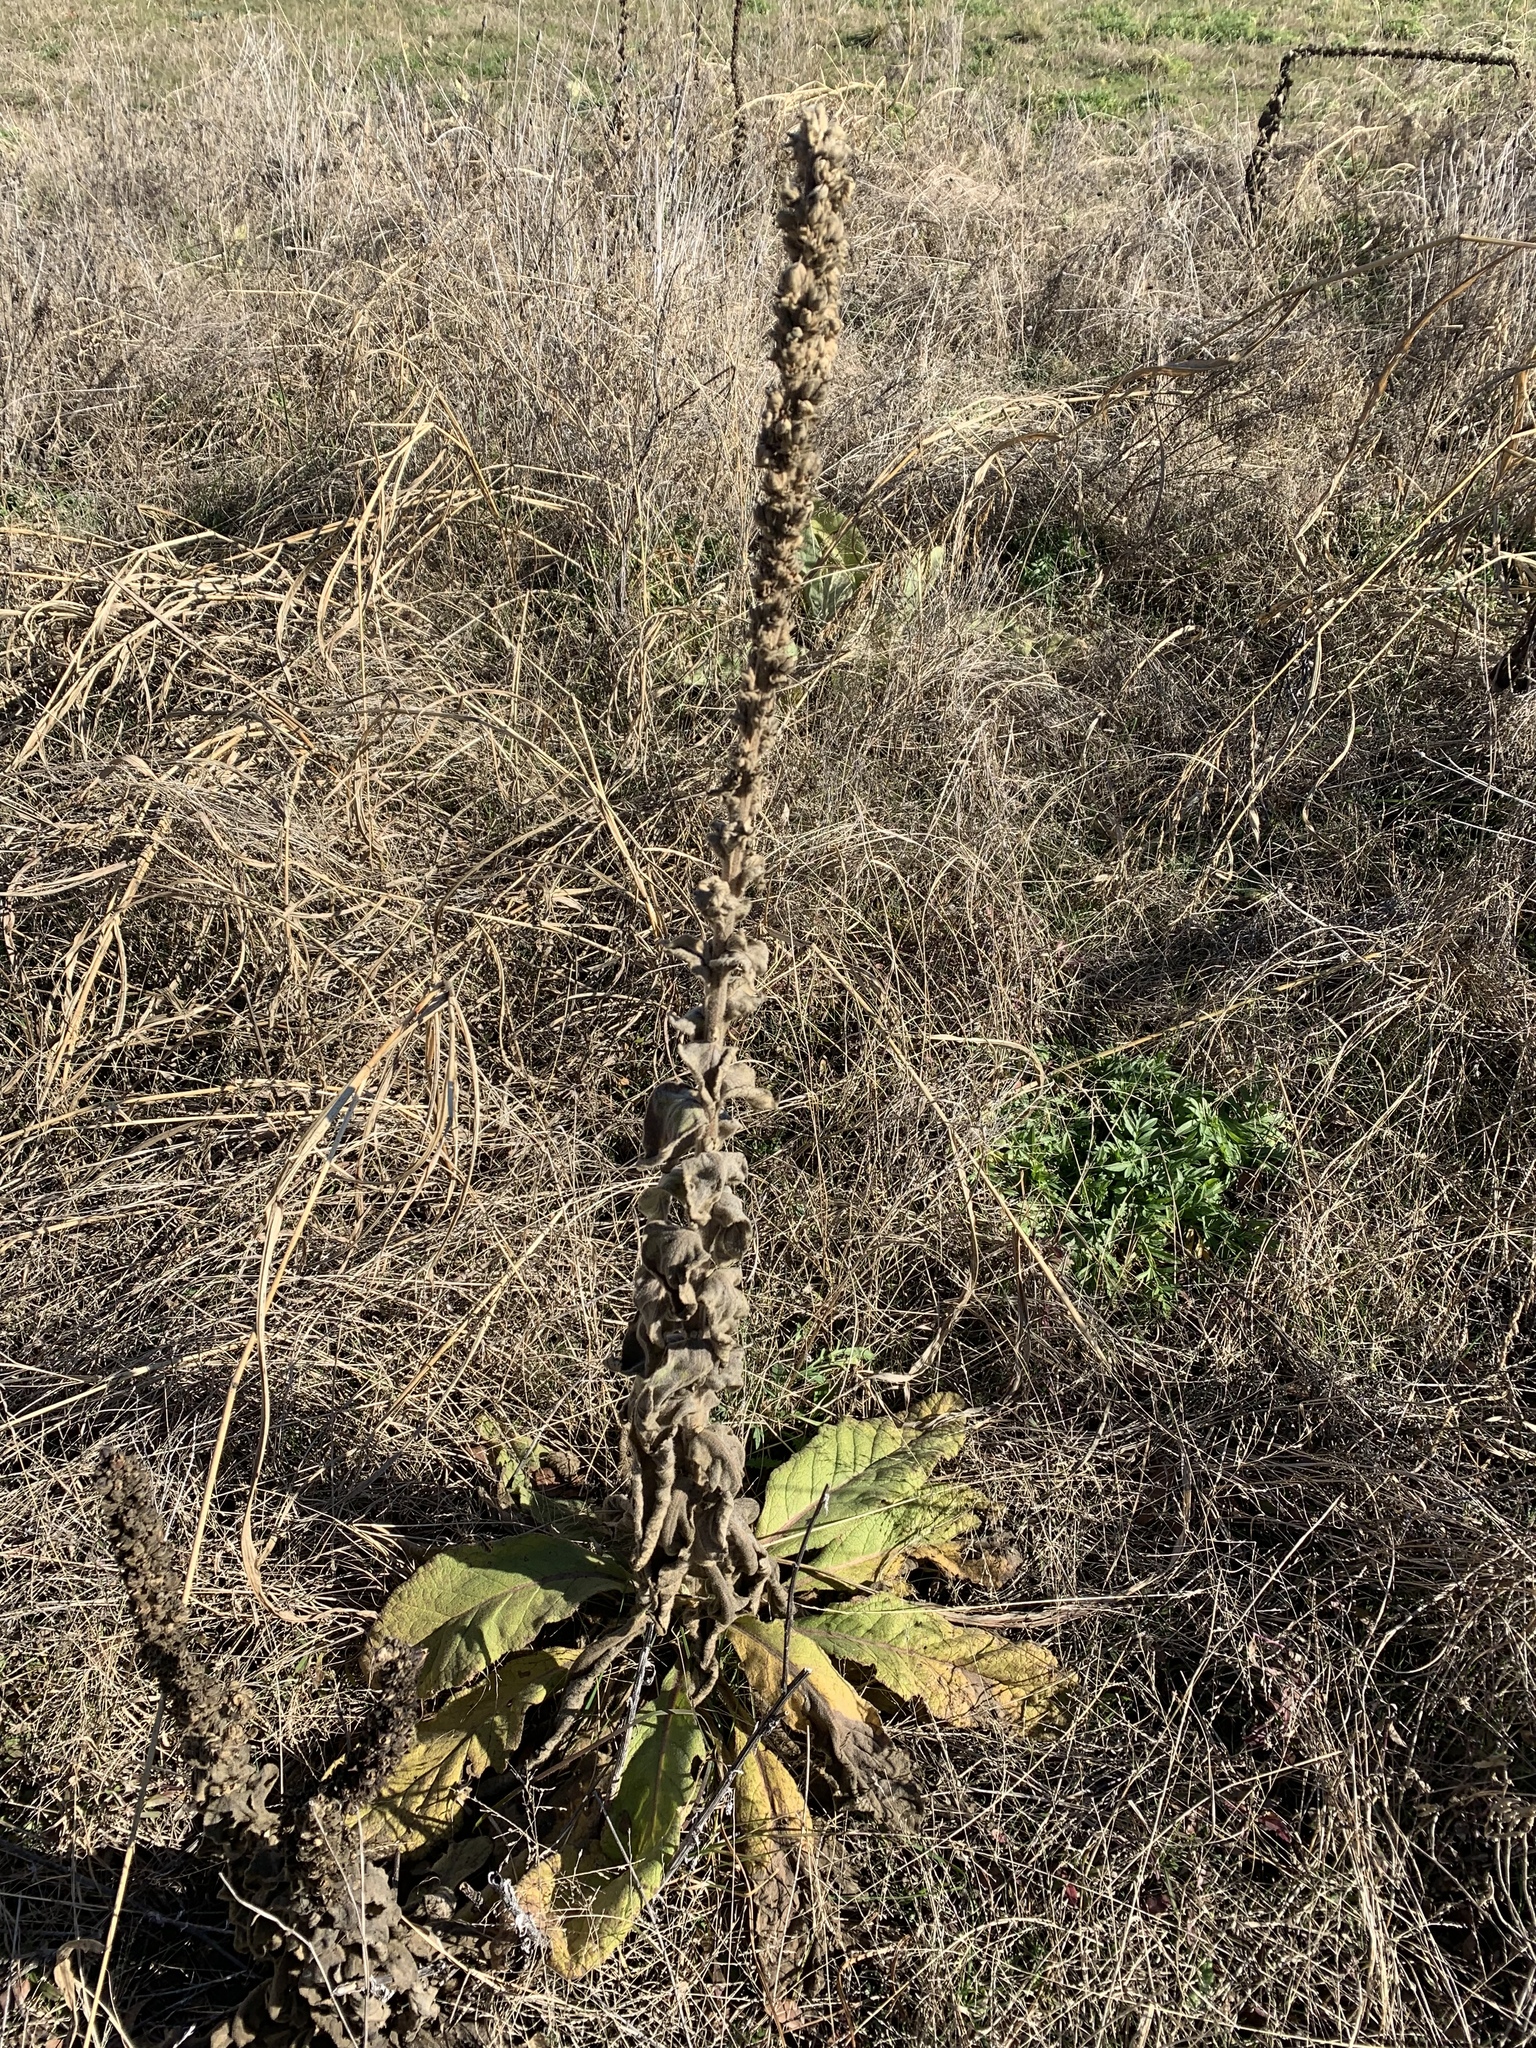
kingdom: Plantae
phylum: Tracheophyta
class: Magnoliopsida
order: Lamiales
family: Scrophulariaceae
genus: Verbascum
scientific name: Verbascum thapsus
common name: Common mullein
